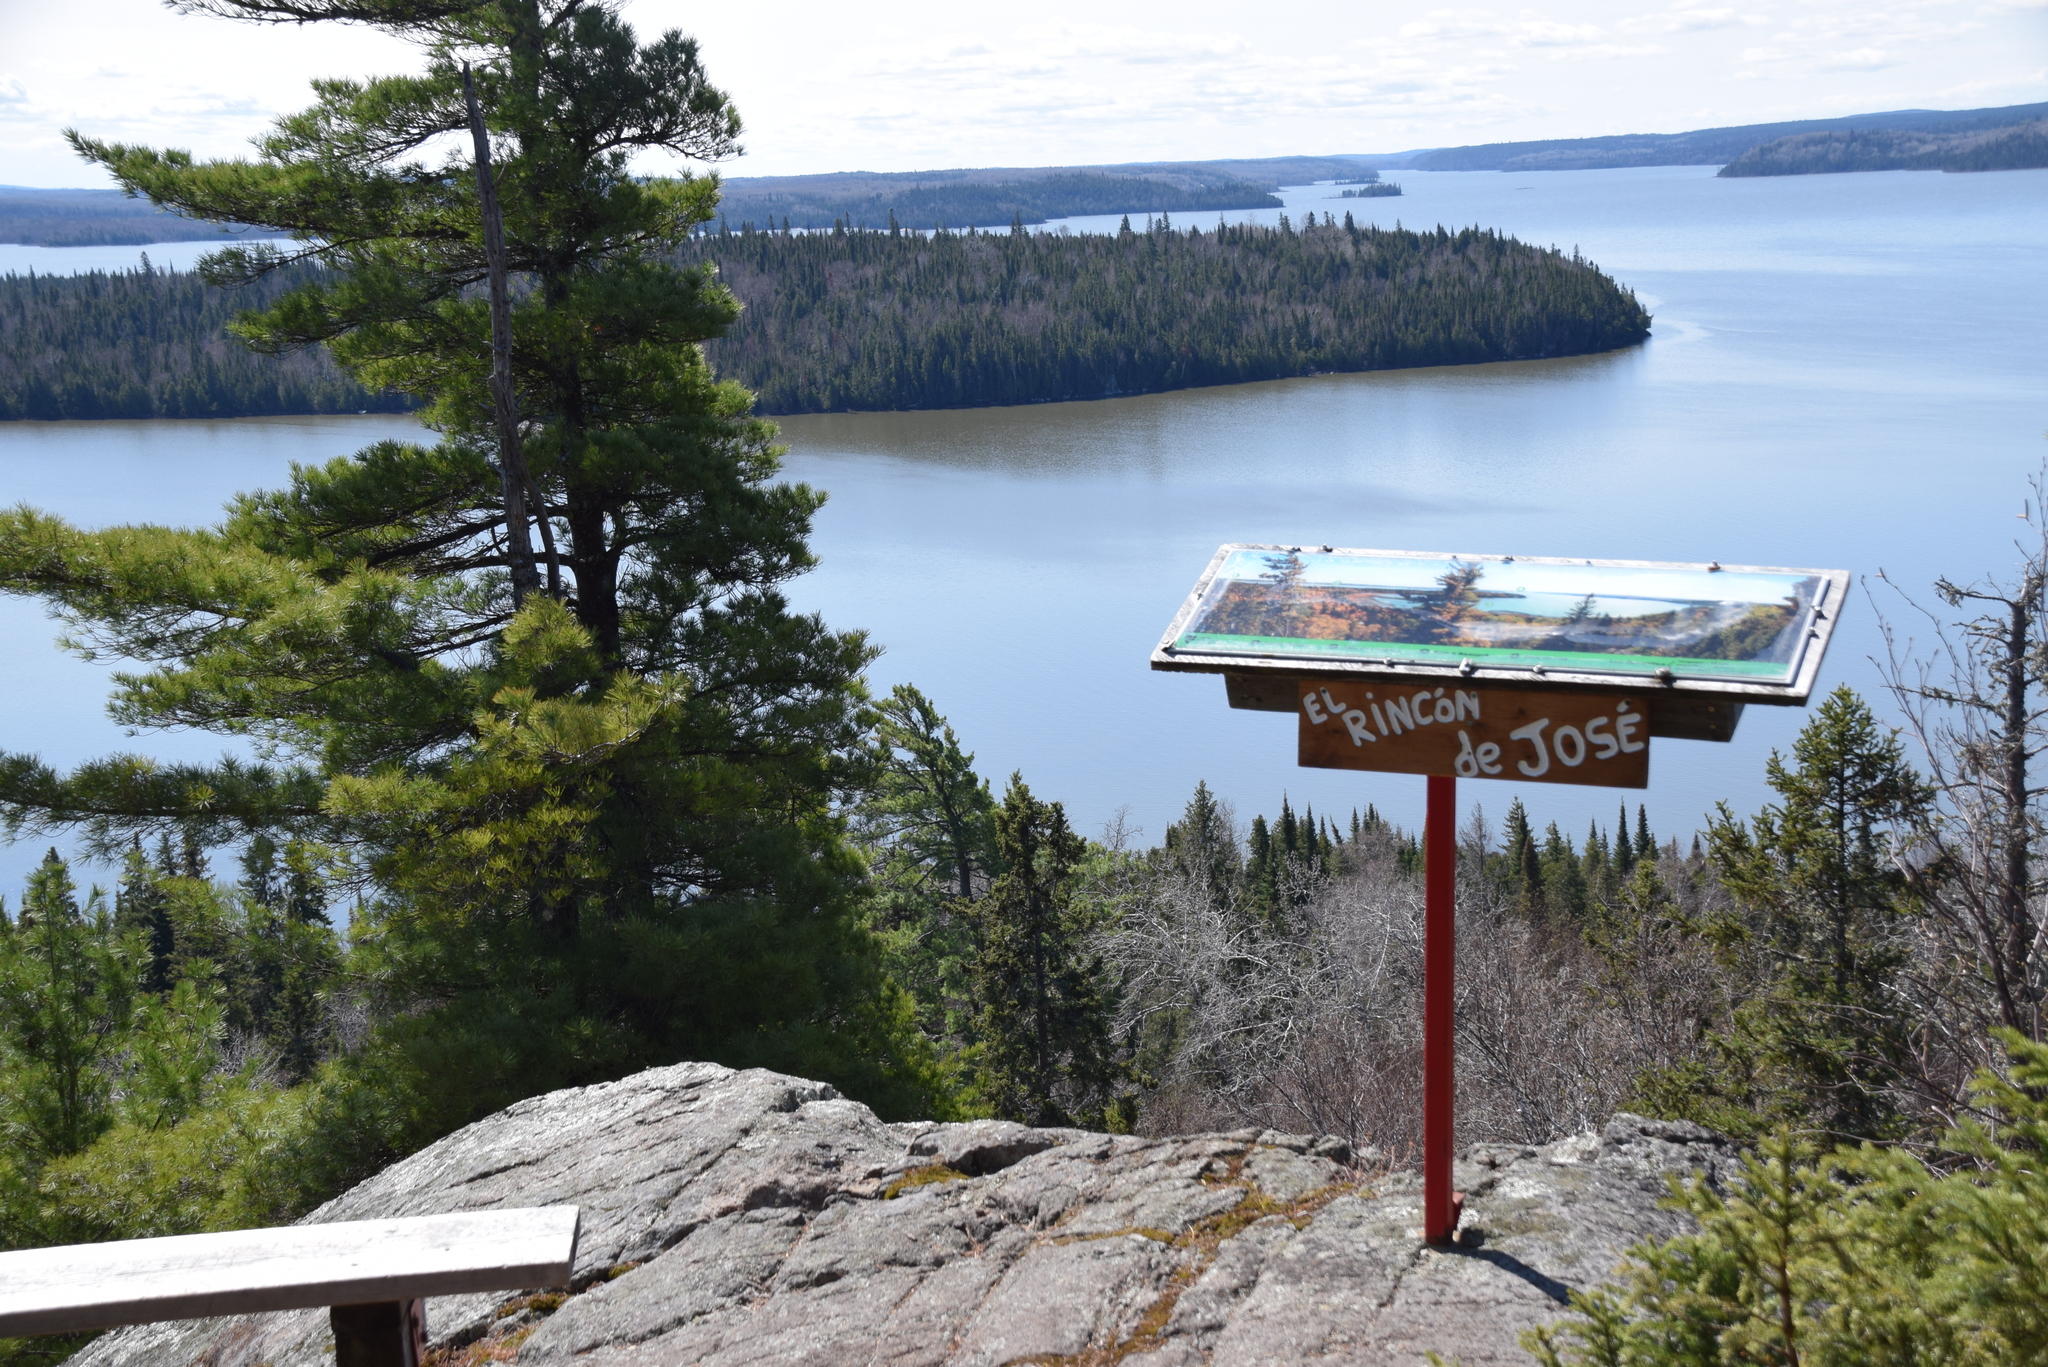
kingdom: Plantae
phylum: Tracheophyta
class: Pinopsida
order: Pinales
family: Pinaceae
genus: Pinus
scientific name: Pinus strobus
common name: Weymouth pine
